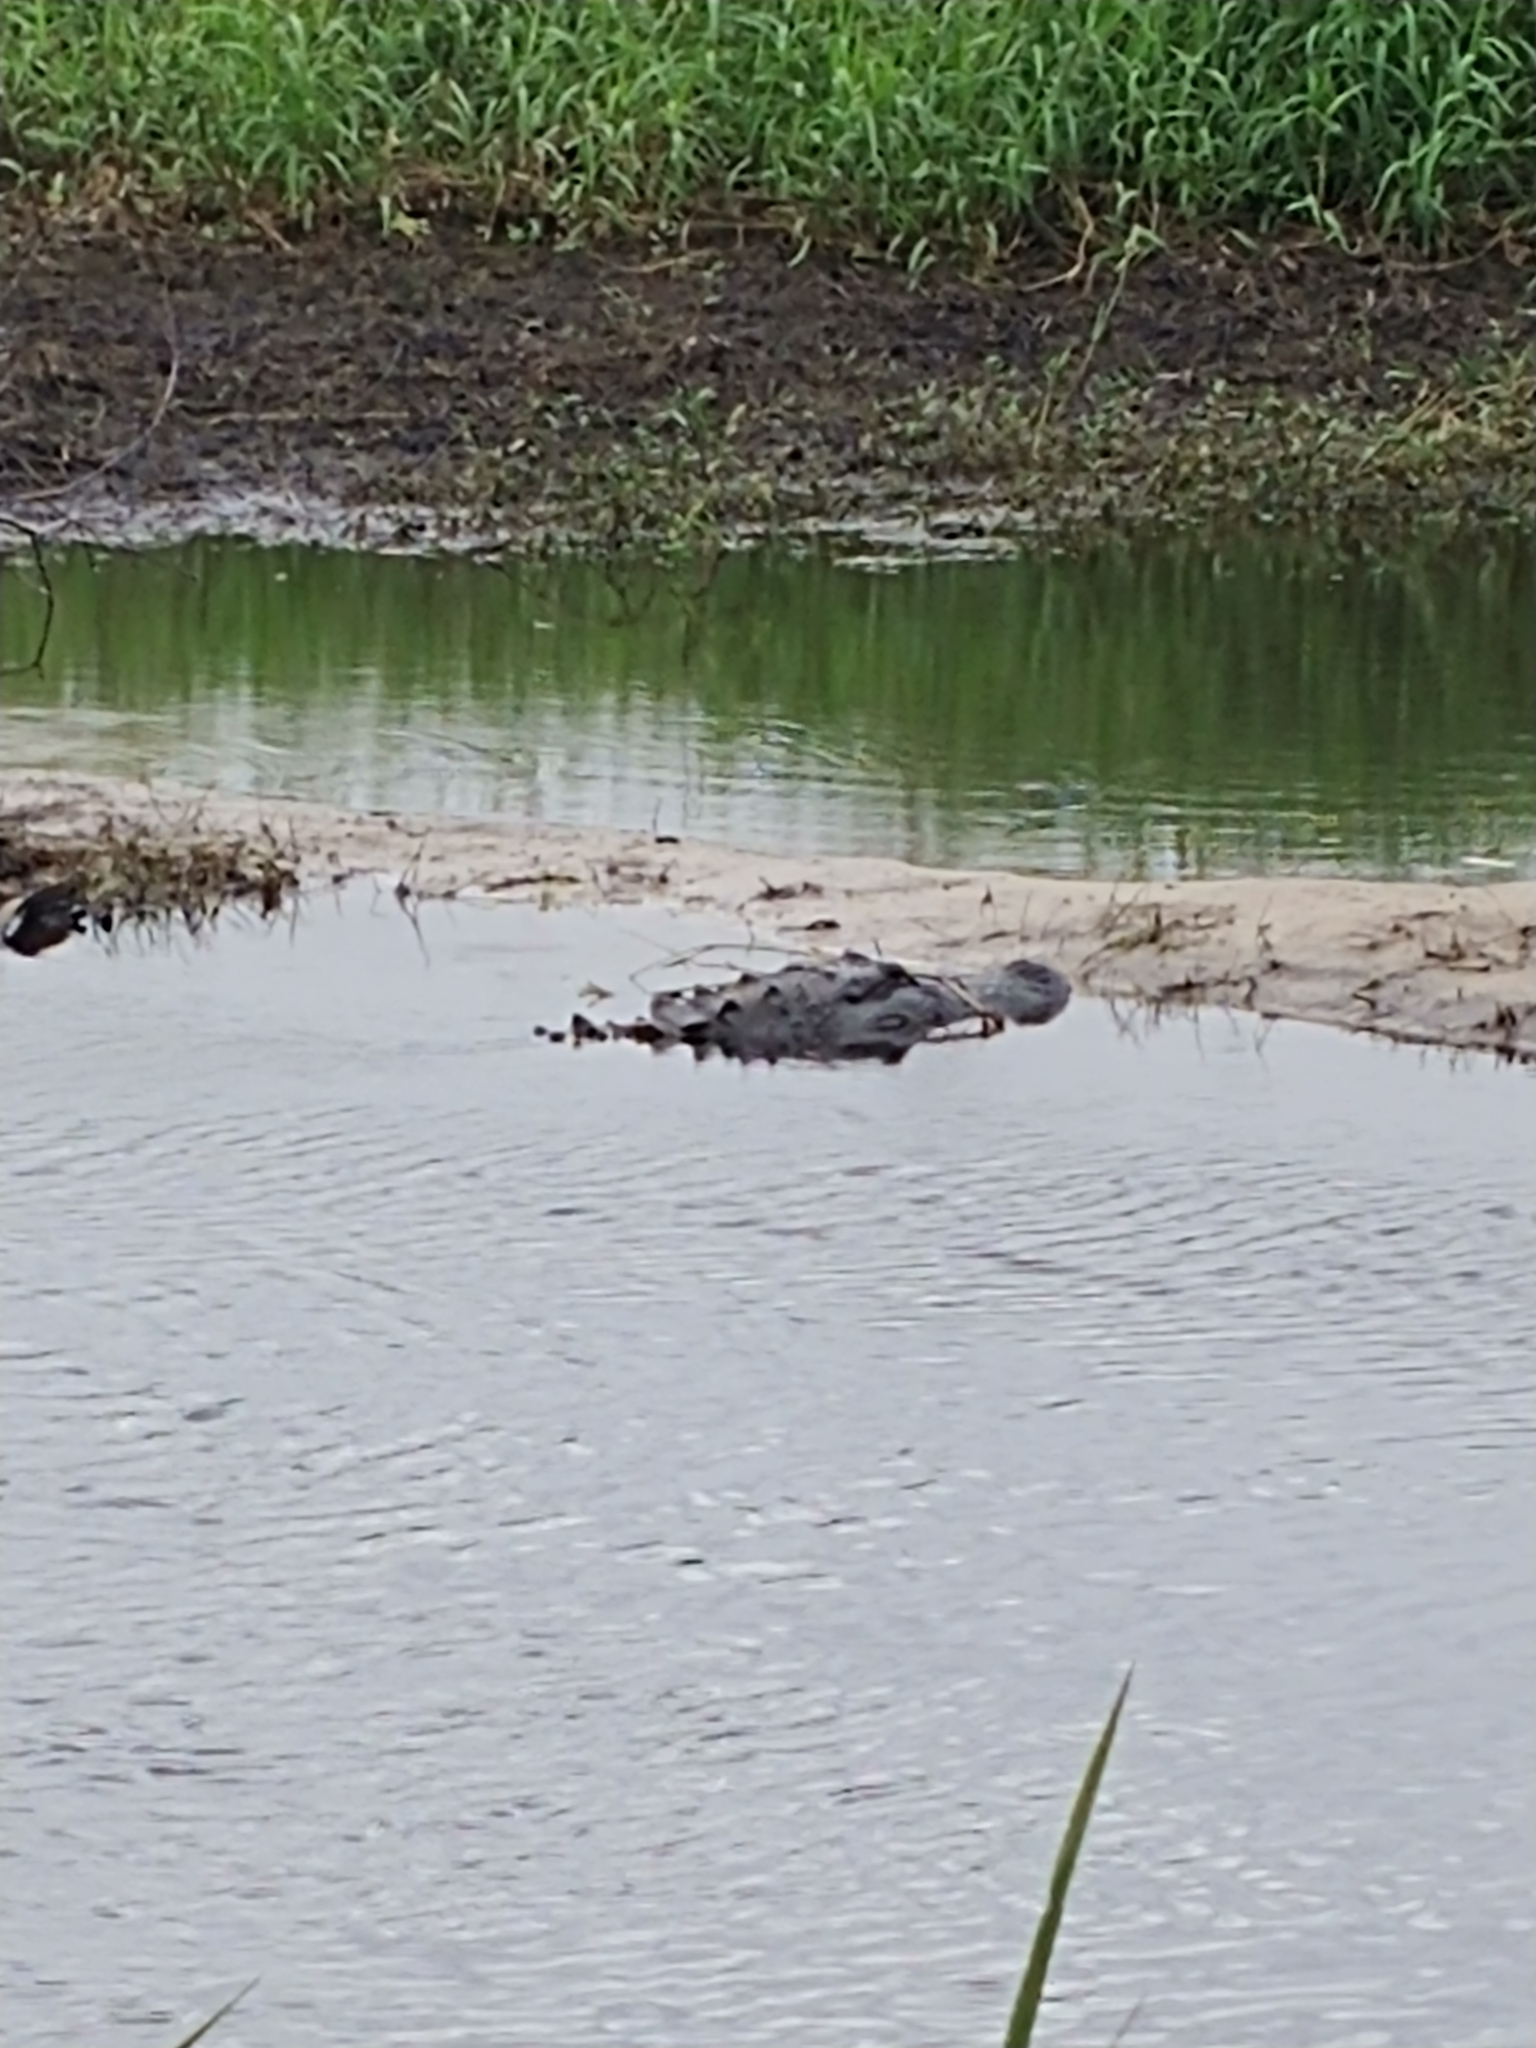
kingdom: Animalia
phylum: Chordata
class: Crocodylia
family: Alligatoridae
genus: Alligator
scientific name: Alligator mississippiensis
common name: American alligator
